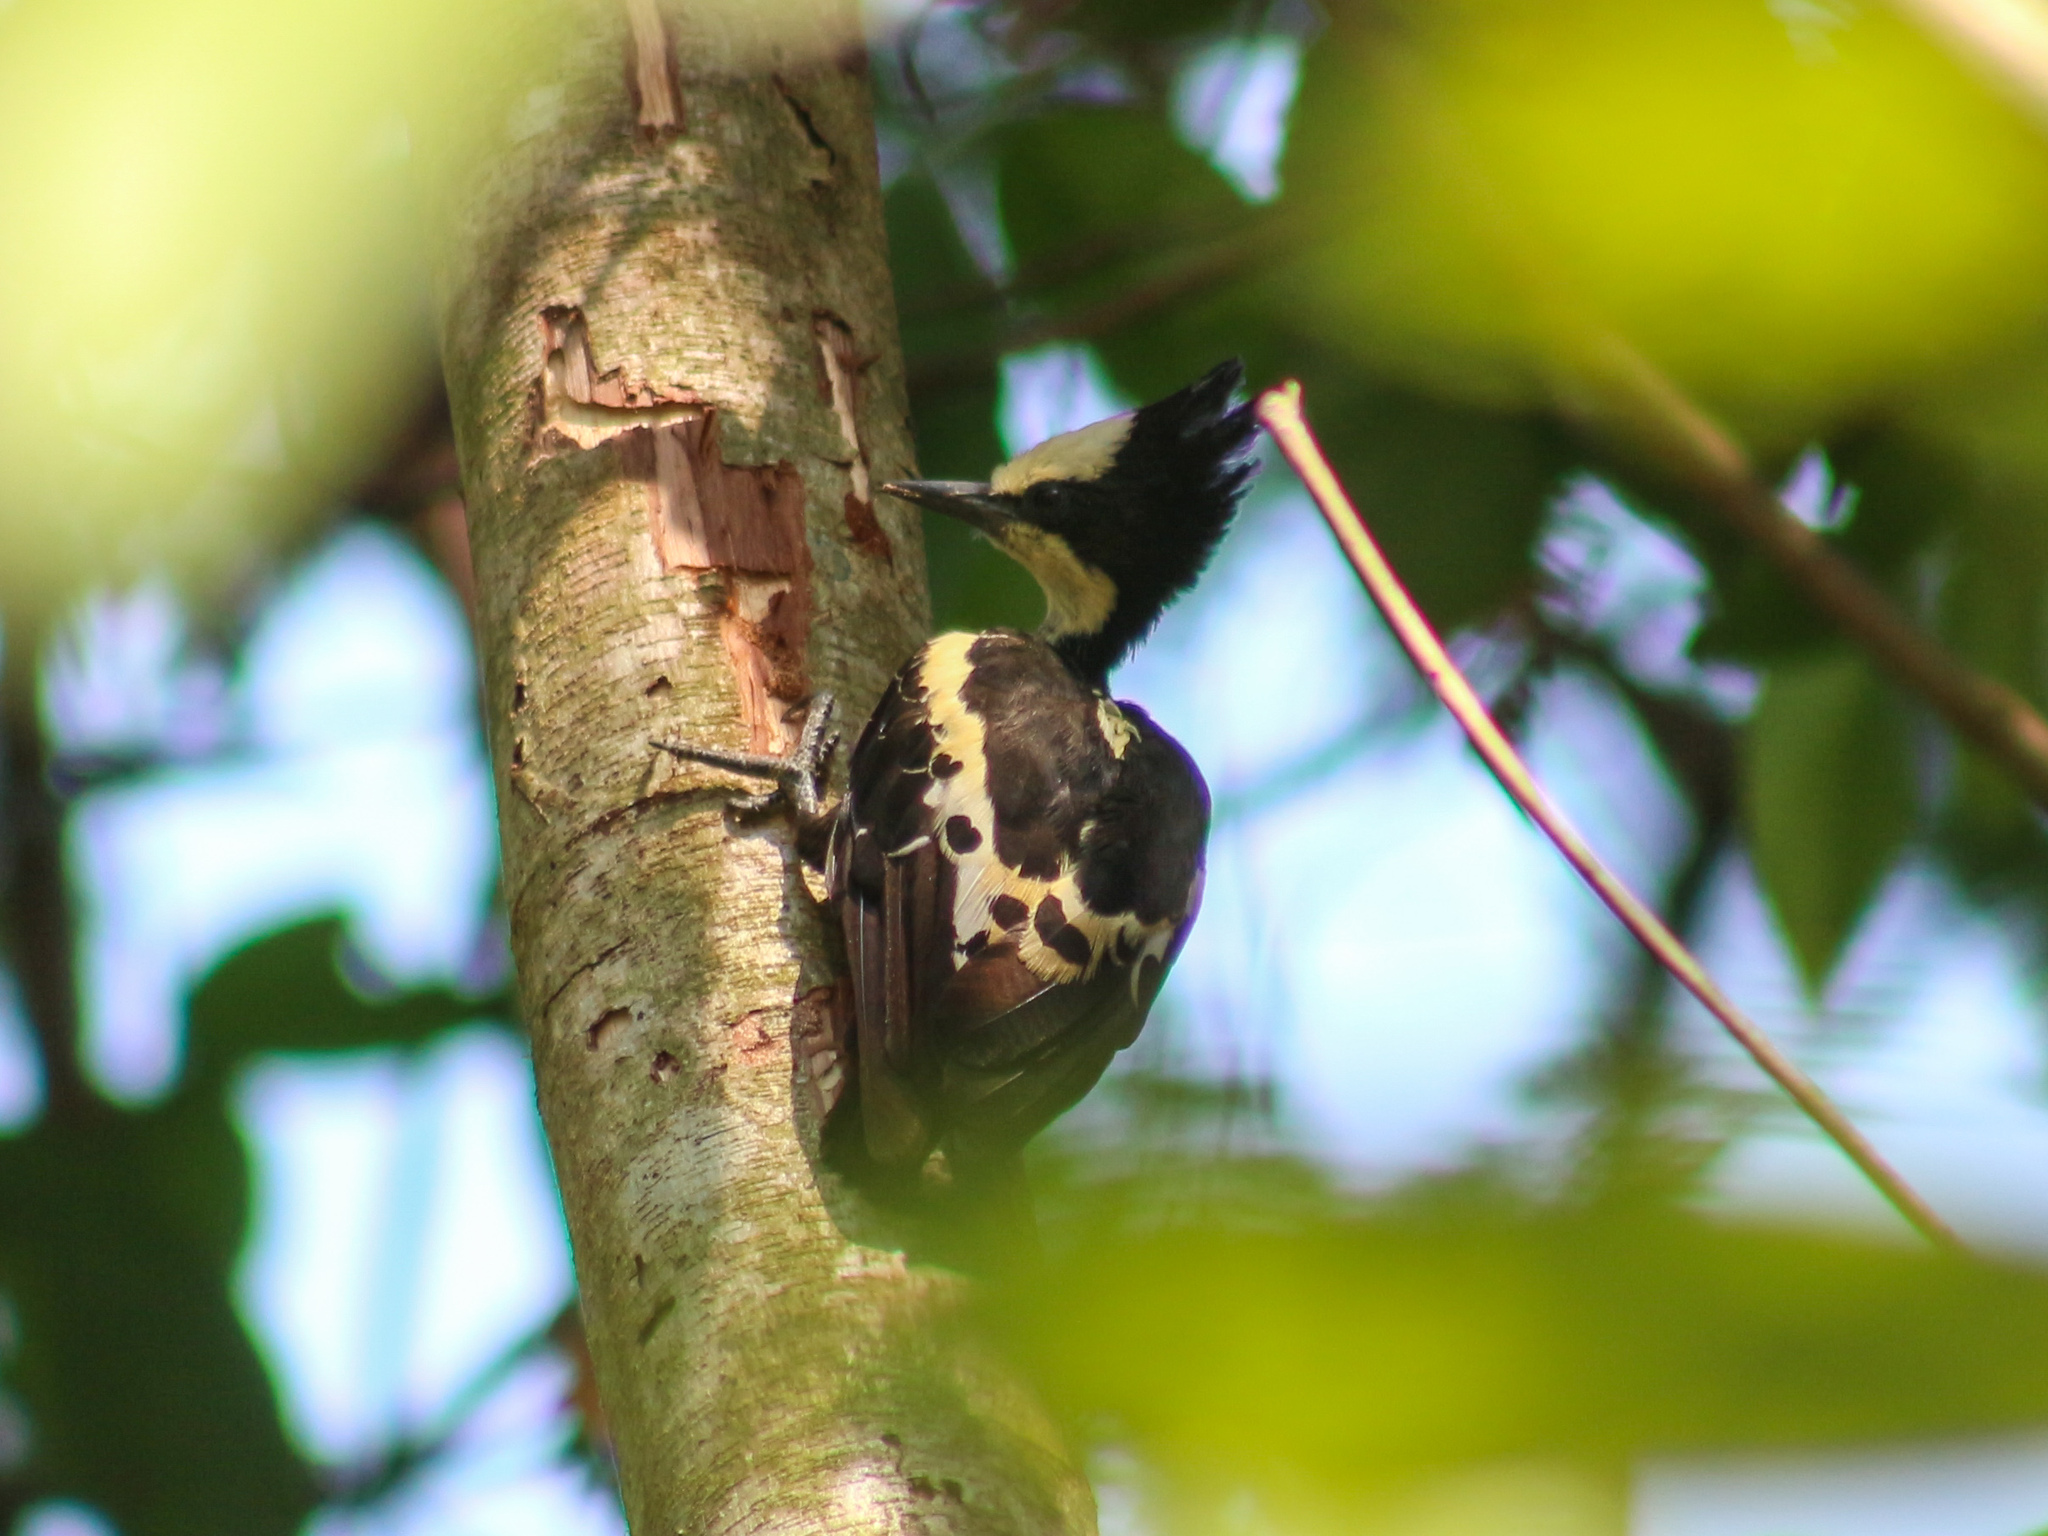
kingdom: Animalia
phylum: Chordata
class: Aves
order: Piciformes
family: Picidae
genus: Hemicircus
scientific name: Hemicircus canente
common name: Heart-spotted woodpecker
